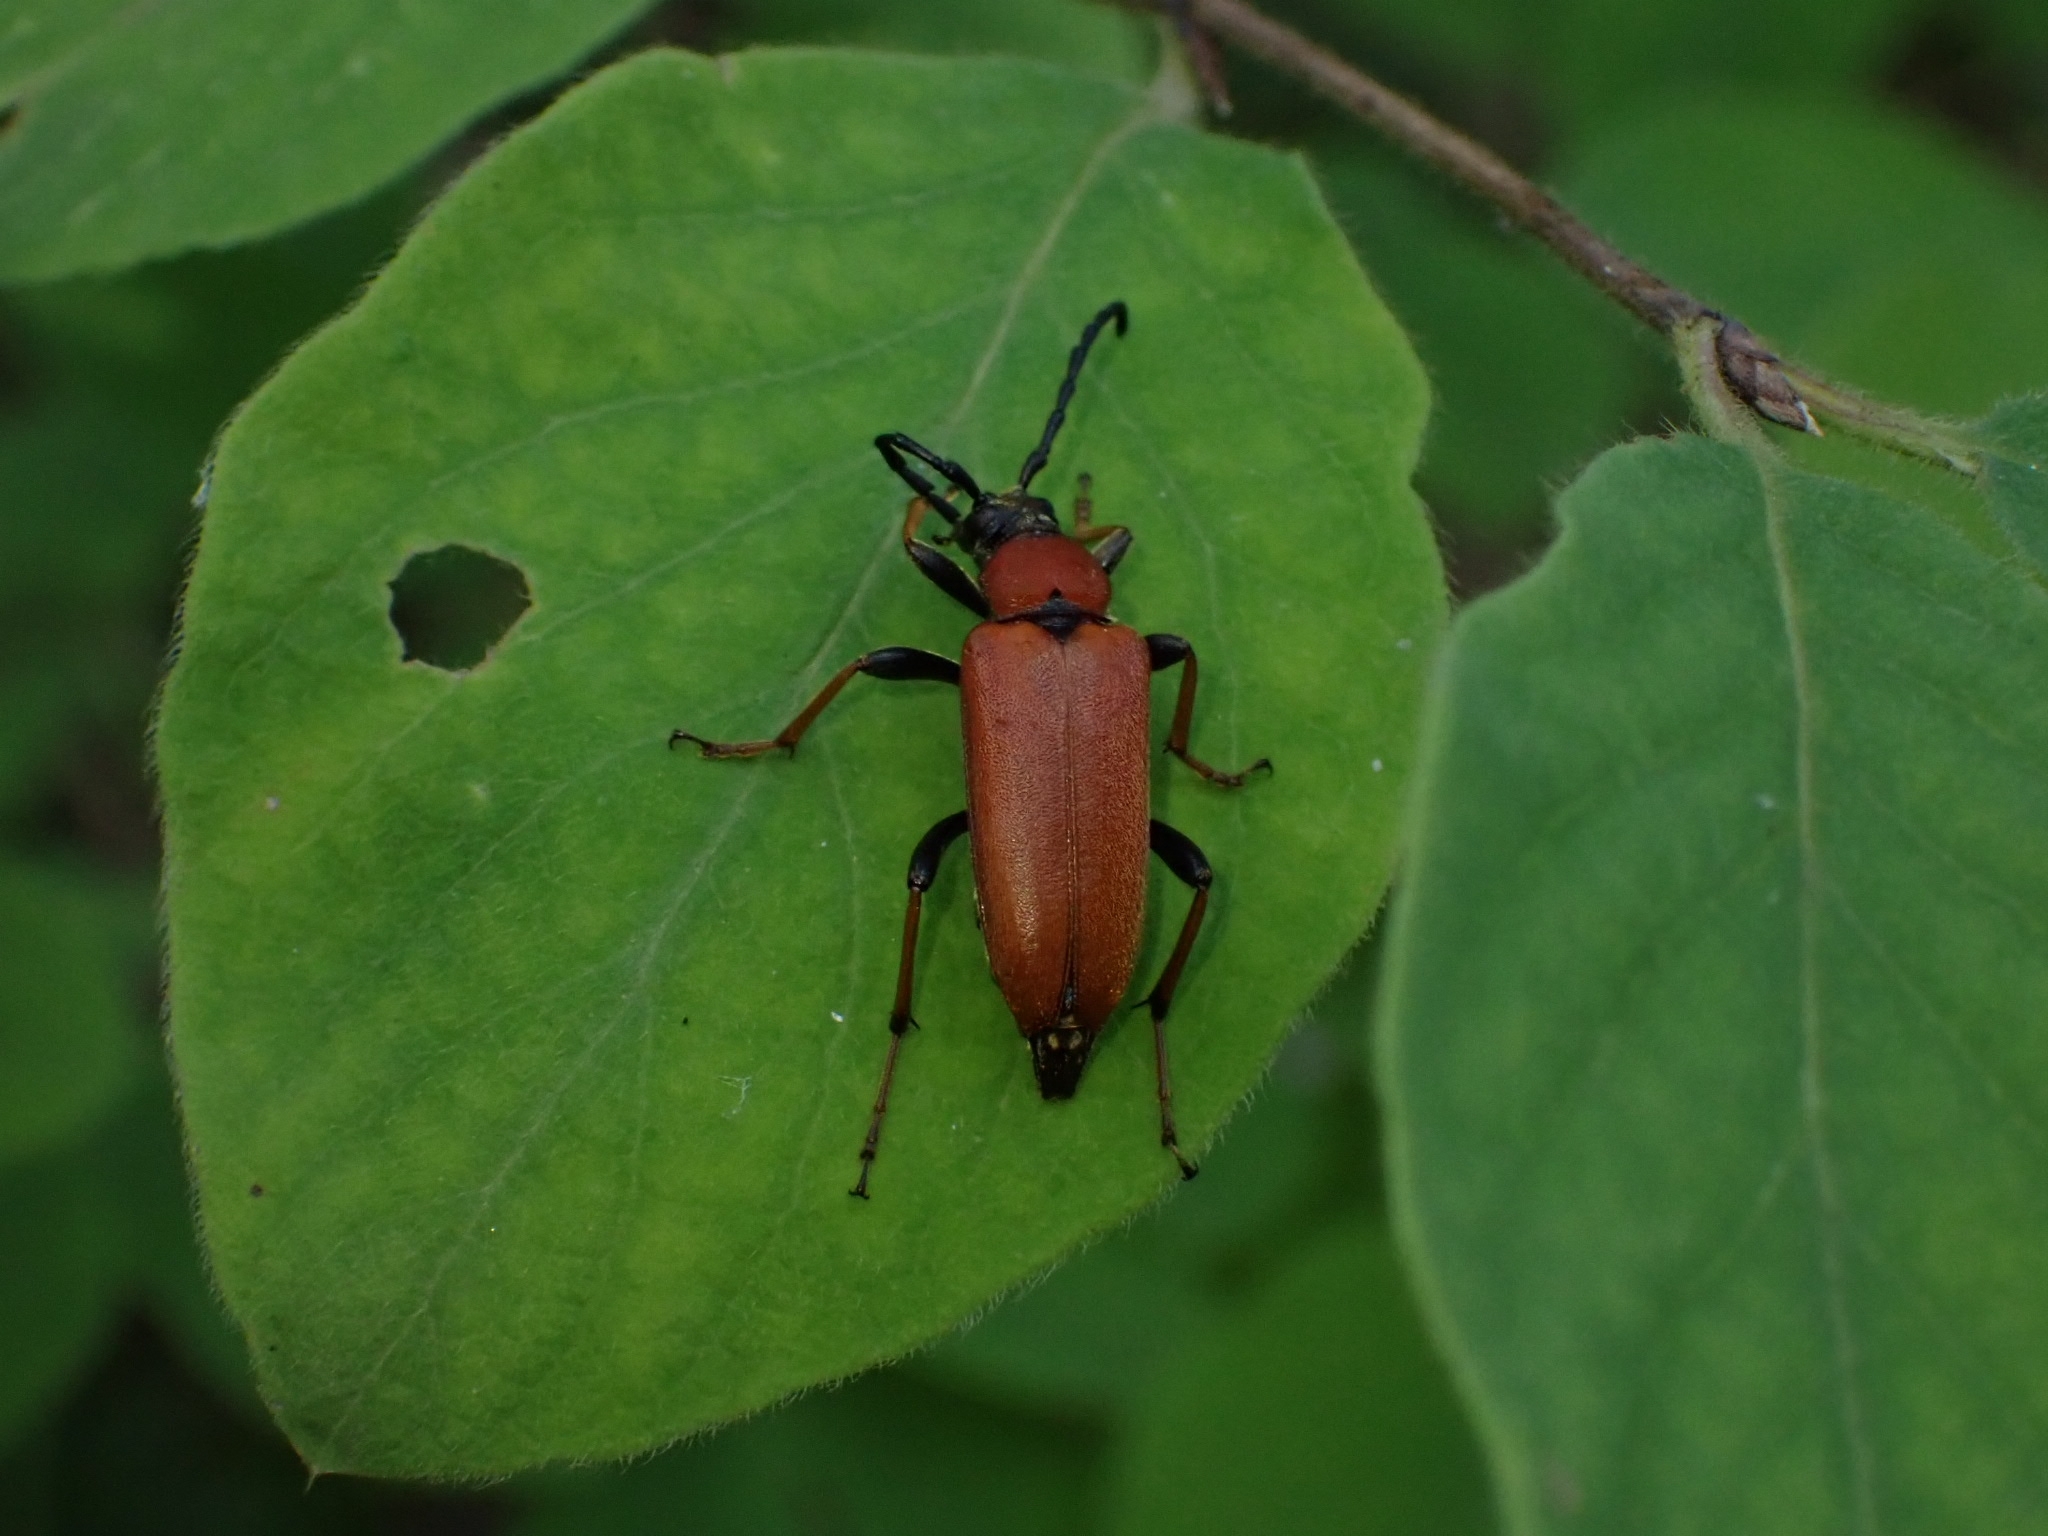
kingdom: Animalia
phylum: Arthropoda
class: Insecta
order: Coleoptera
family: Cerambycidae
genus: Stictoleptura
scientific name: Stictoleptura rubra
